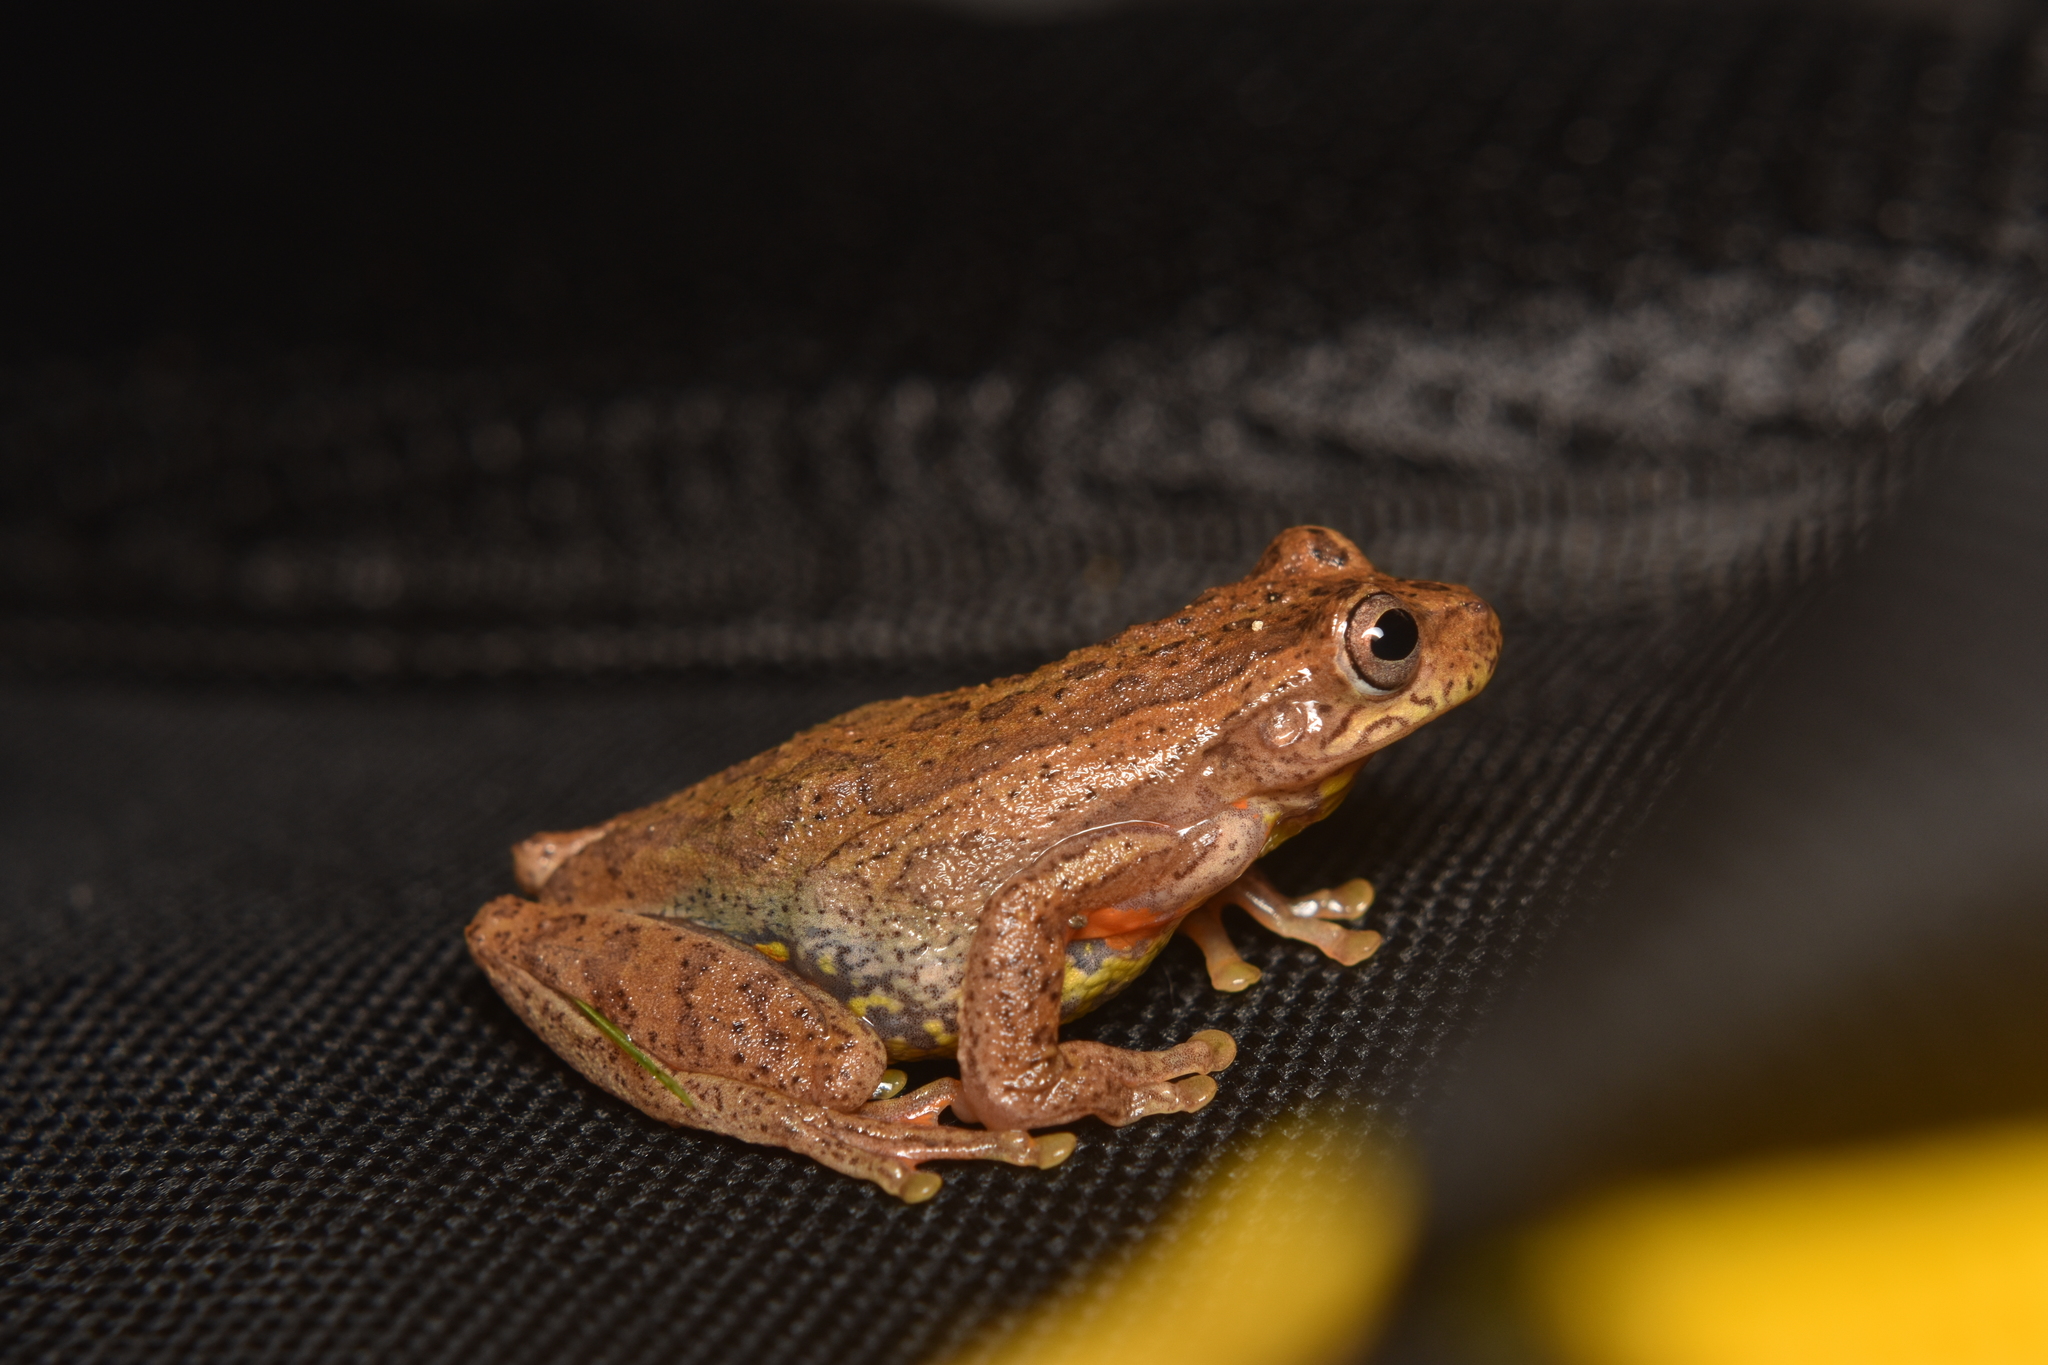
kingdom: Animalia
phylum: Chordata
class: Amphibia
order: Anura
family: Hylidae
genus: Dendropsophus
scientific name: Dendropsophus bogerti
